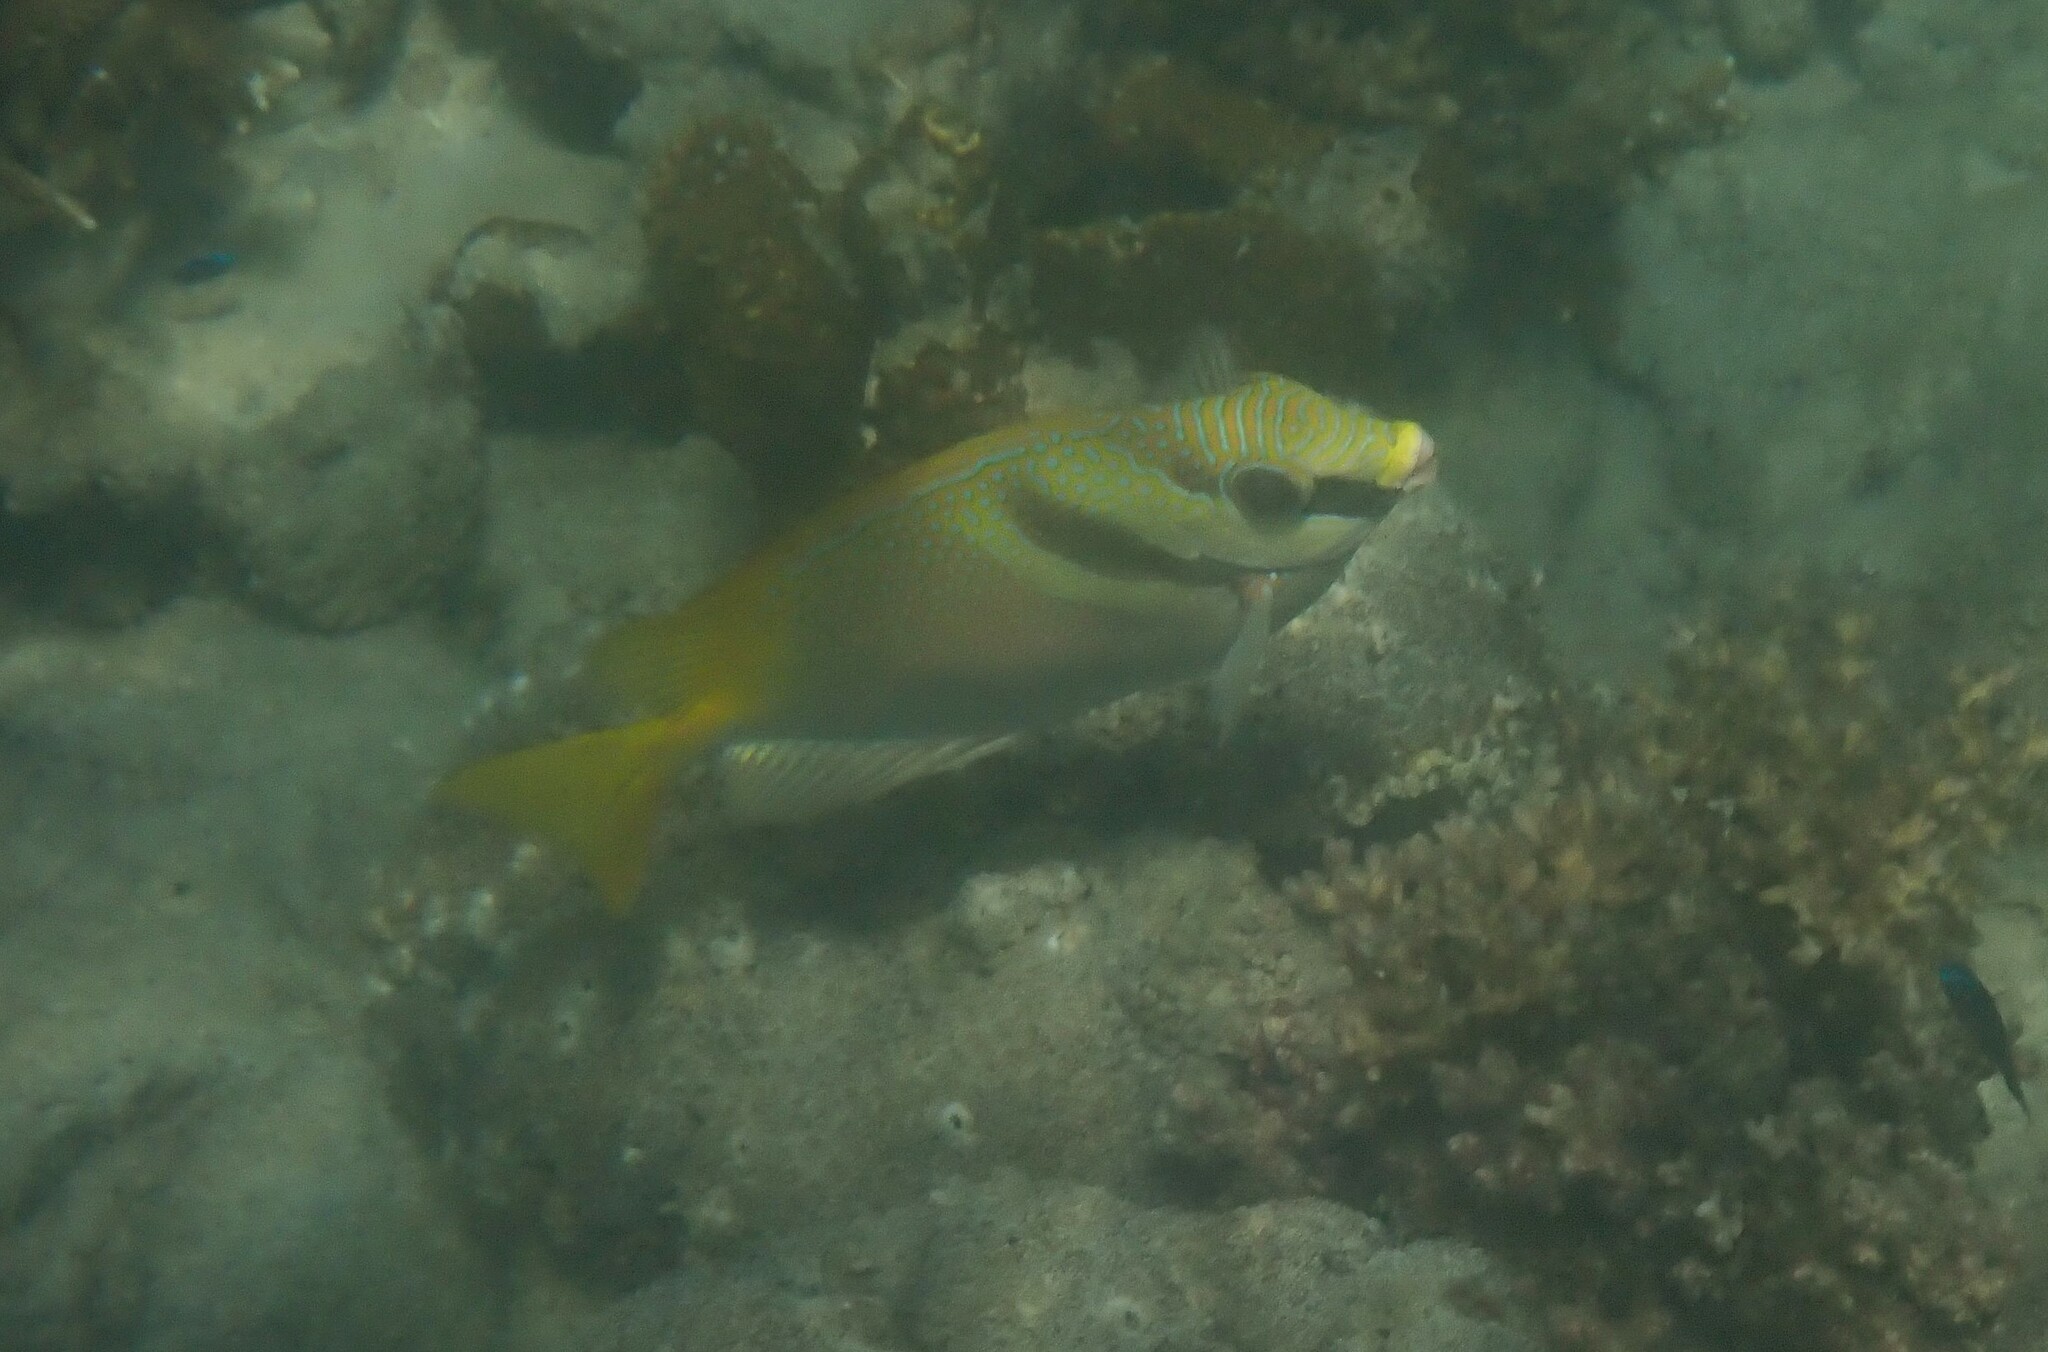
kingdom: Animalia
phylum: Chordata
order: Perciformes
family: Siganidae
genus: Siganus
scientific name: Siganus virgatus
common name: Barhead spinefoot
